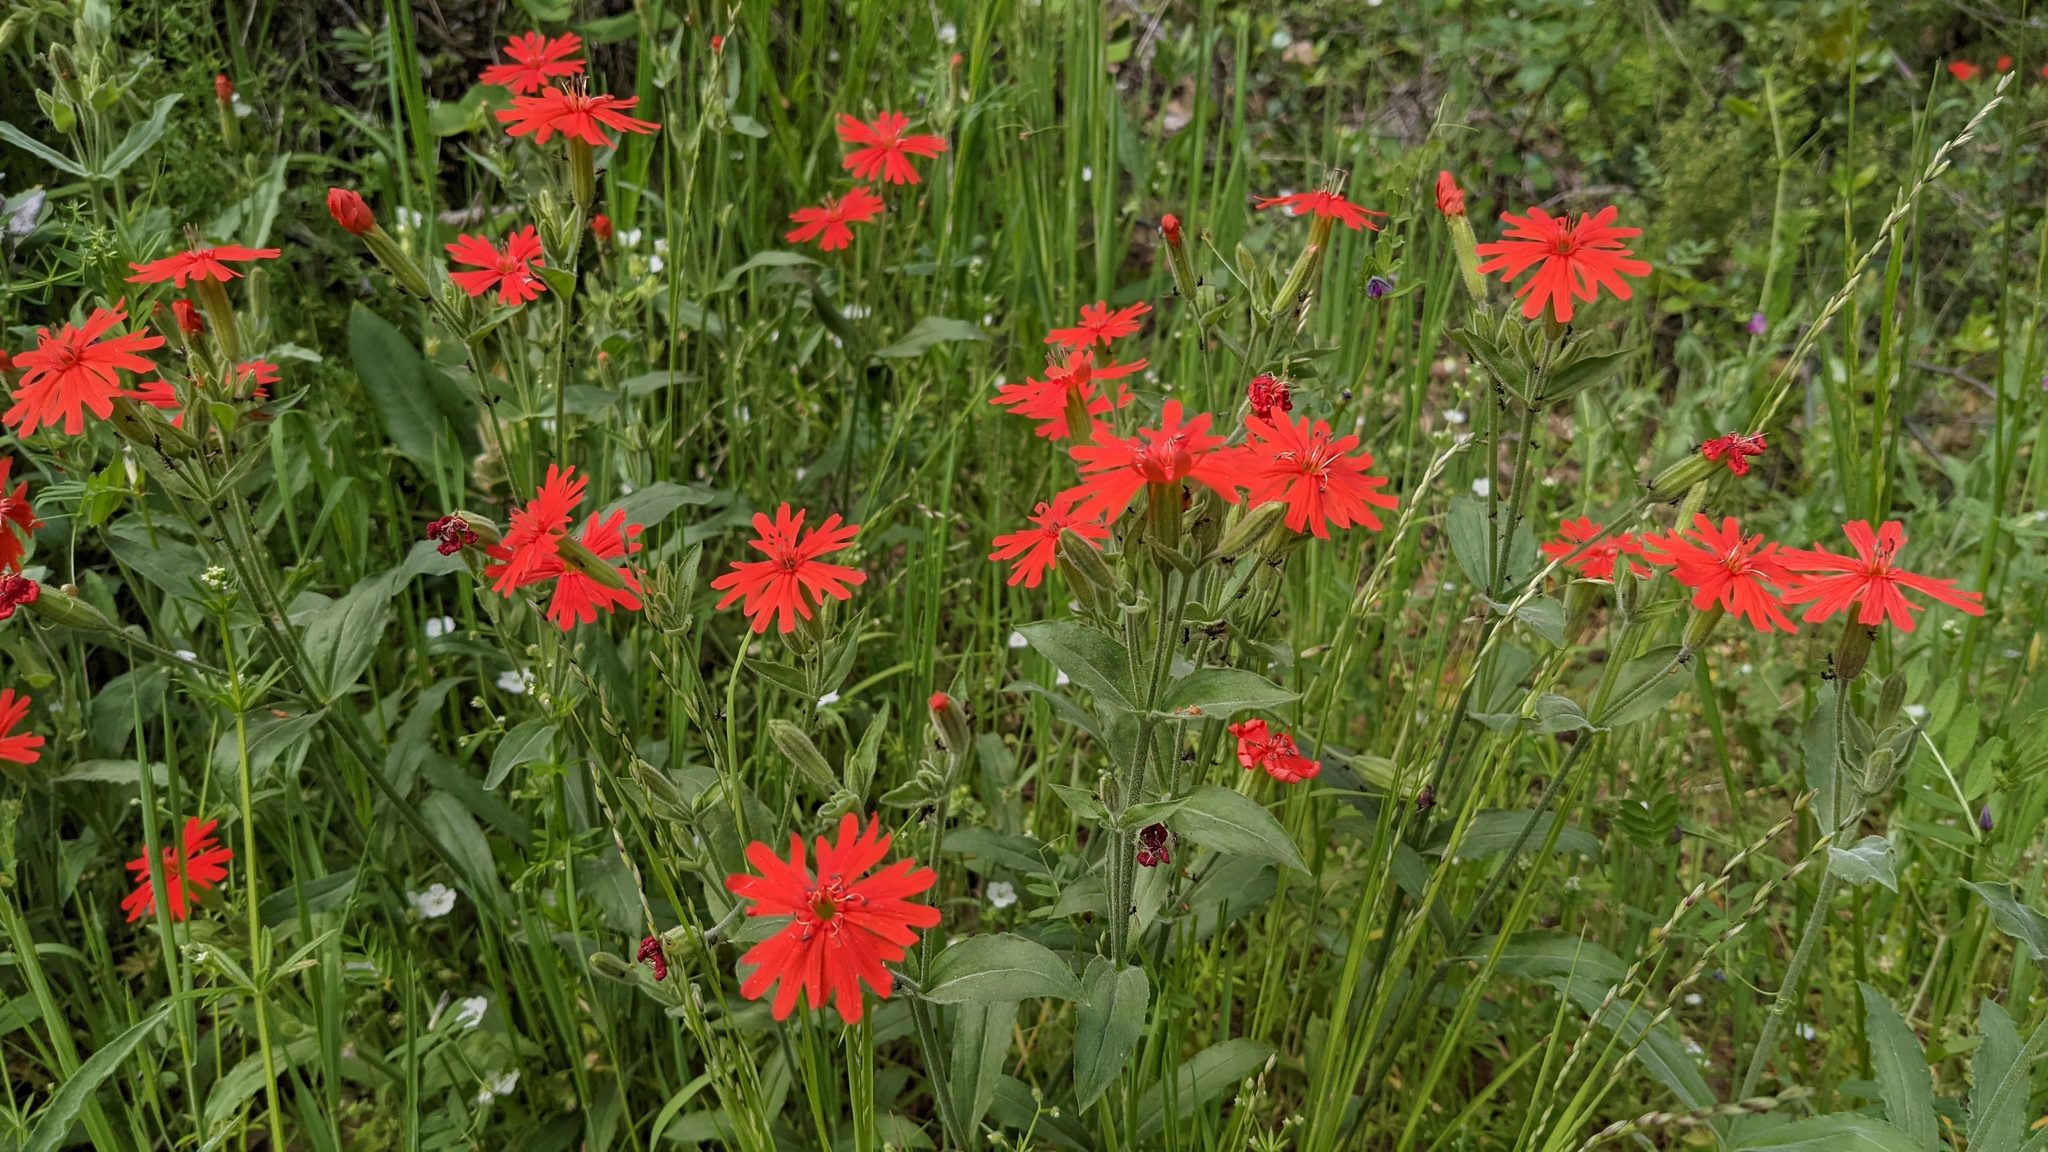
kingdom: Plantae
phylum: Tracheophyta
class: Magnoliopsida
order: Caryophyllales
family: Caryophyllaceae
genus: Silene
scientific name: Silene laciniata
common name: Indian-pink
